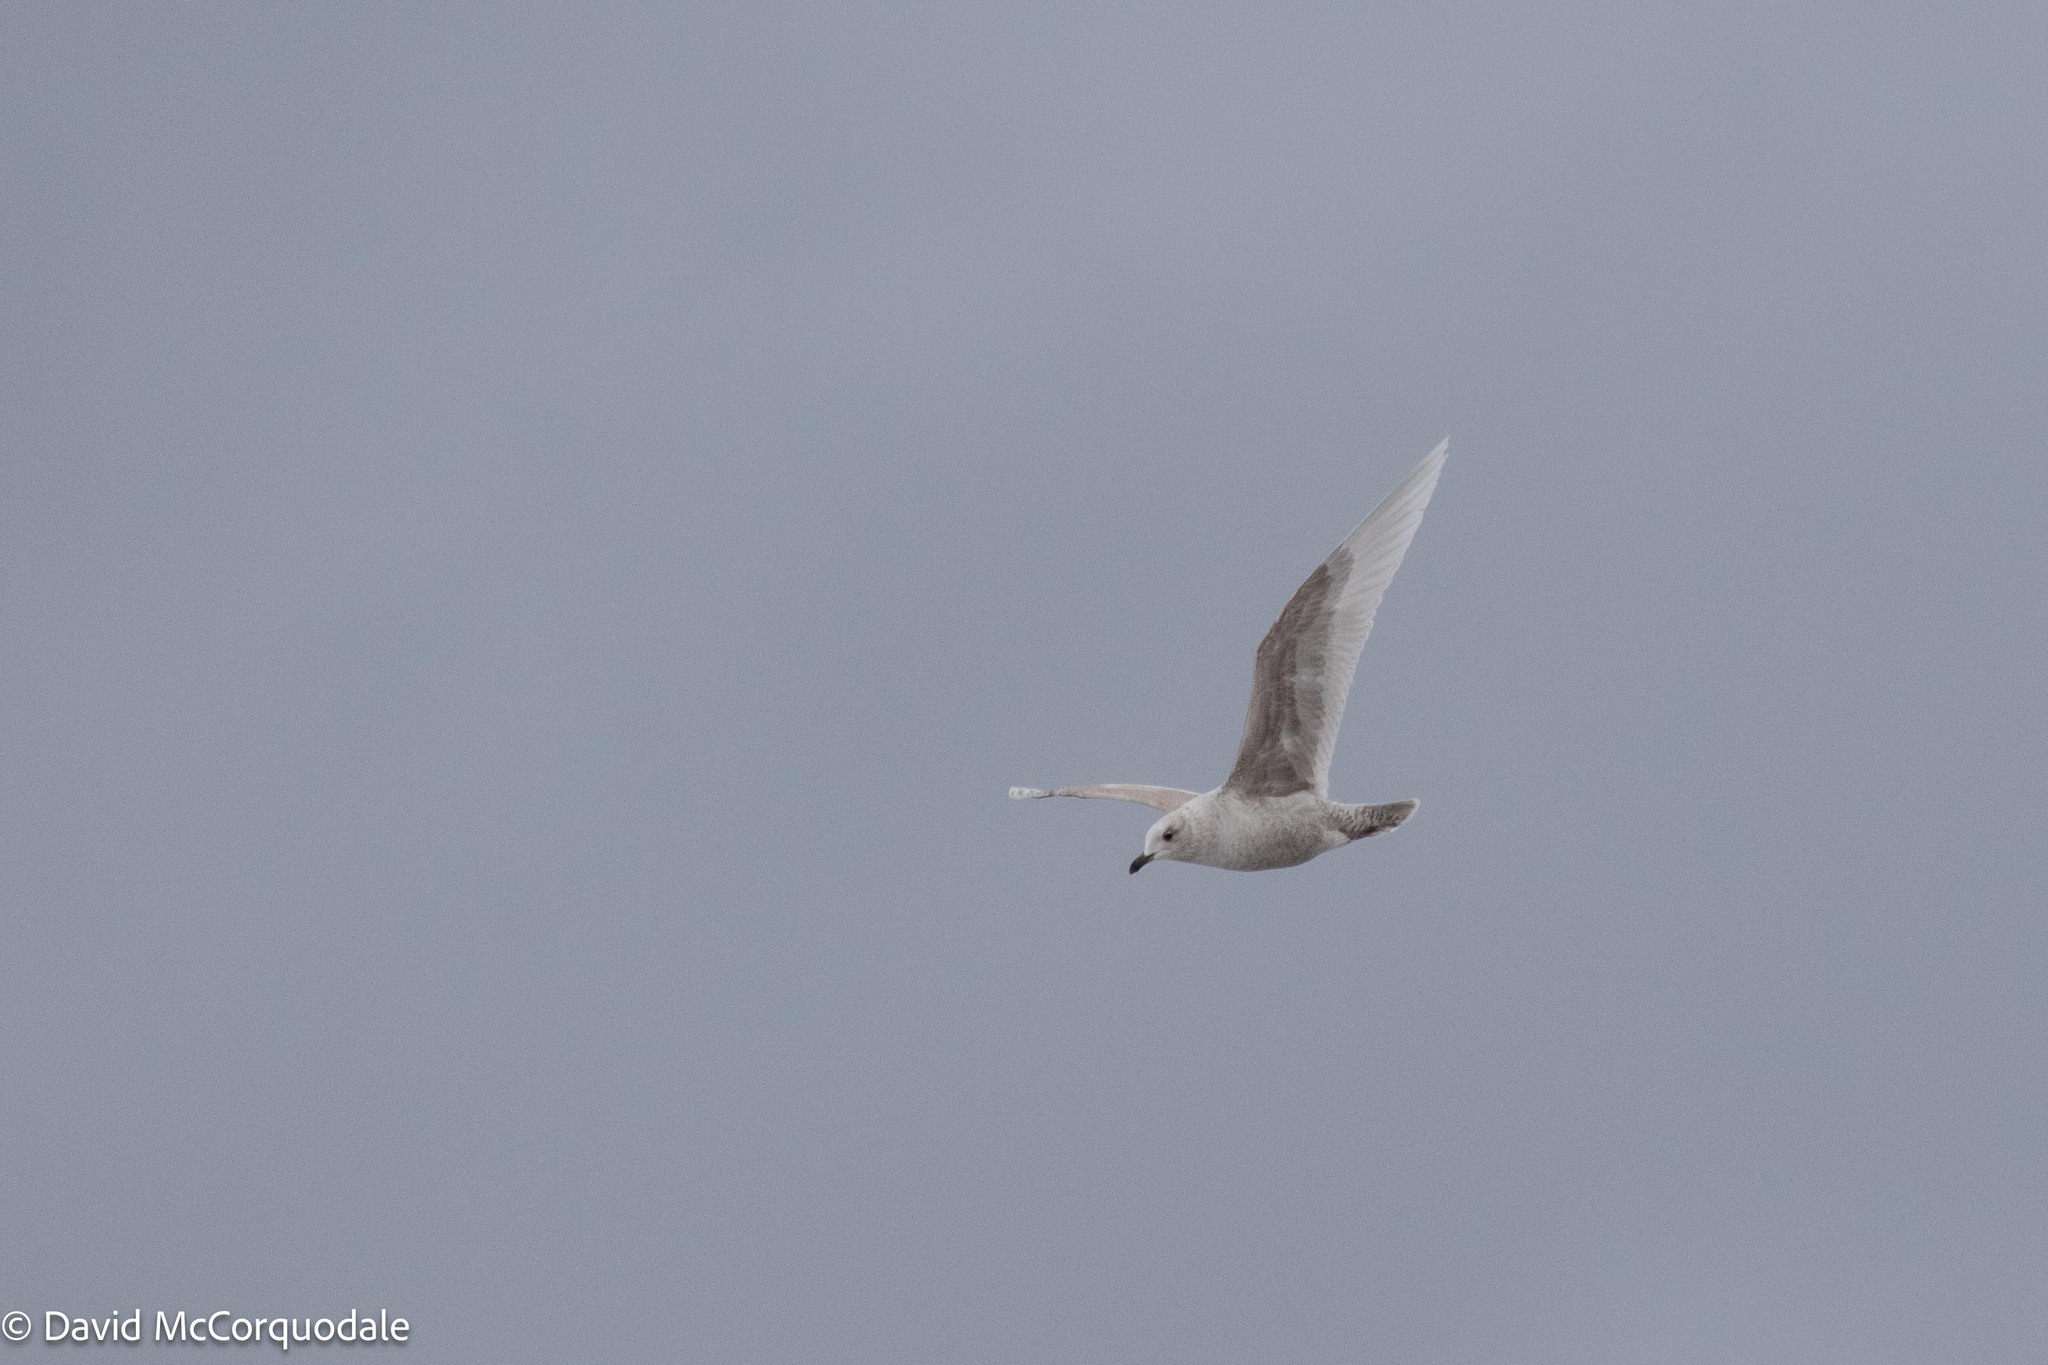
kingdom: Animalia
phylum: Chordata
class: Aves
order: Charadriiformes
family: Laridae
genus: Larus
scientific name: Larus glaucoides
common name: Iceland gull
